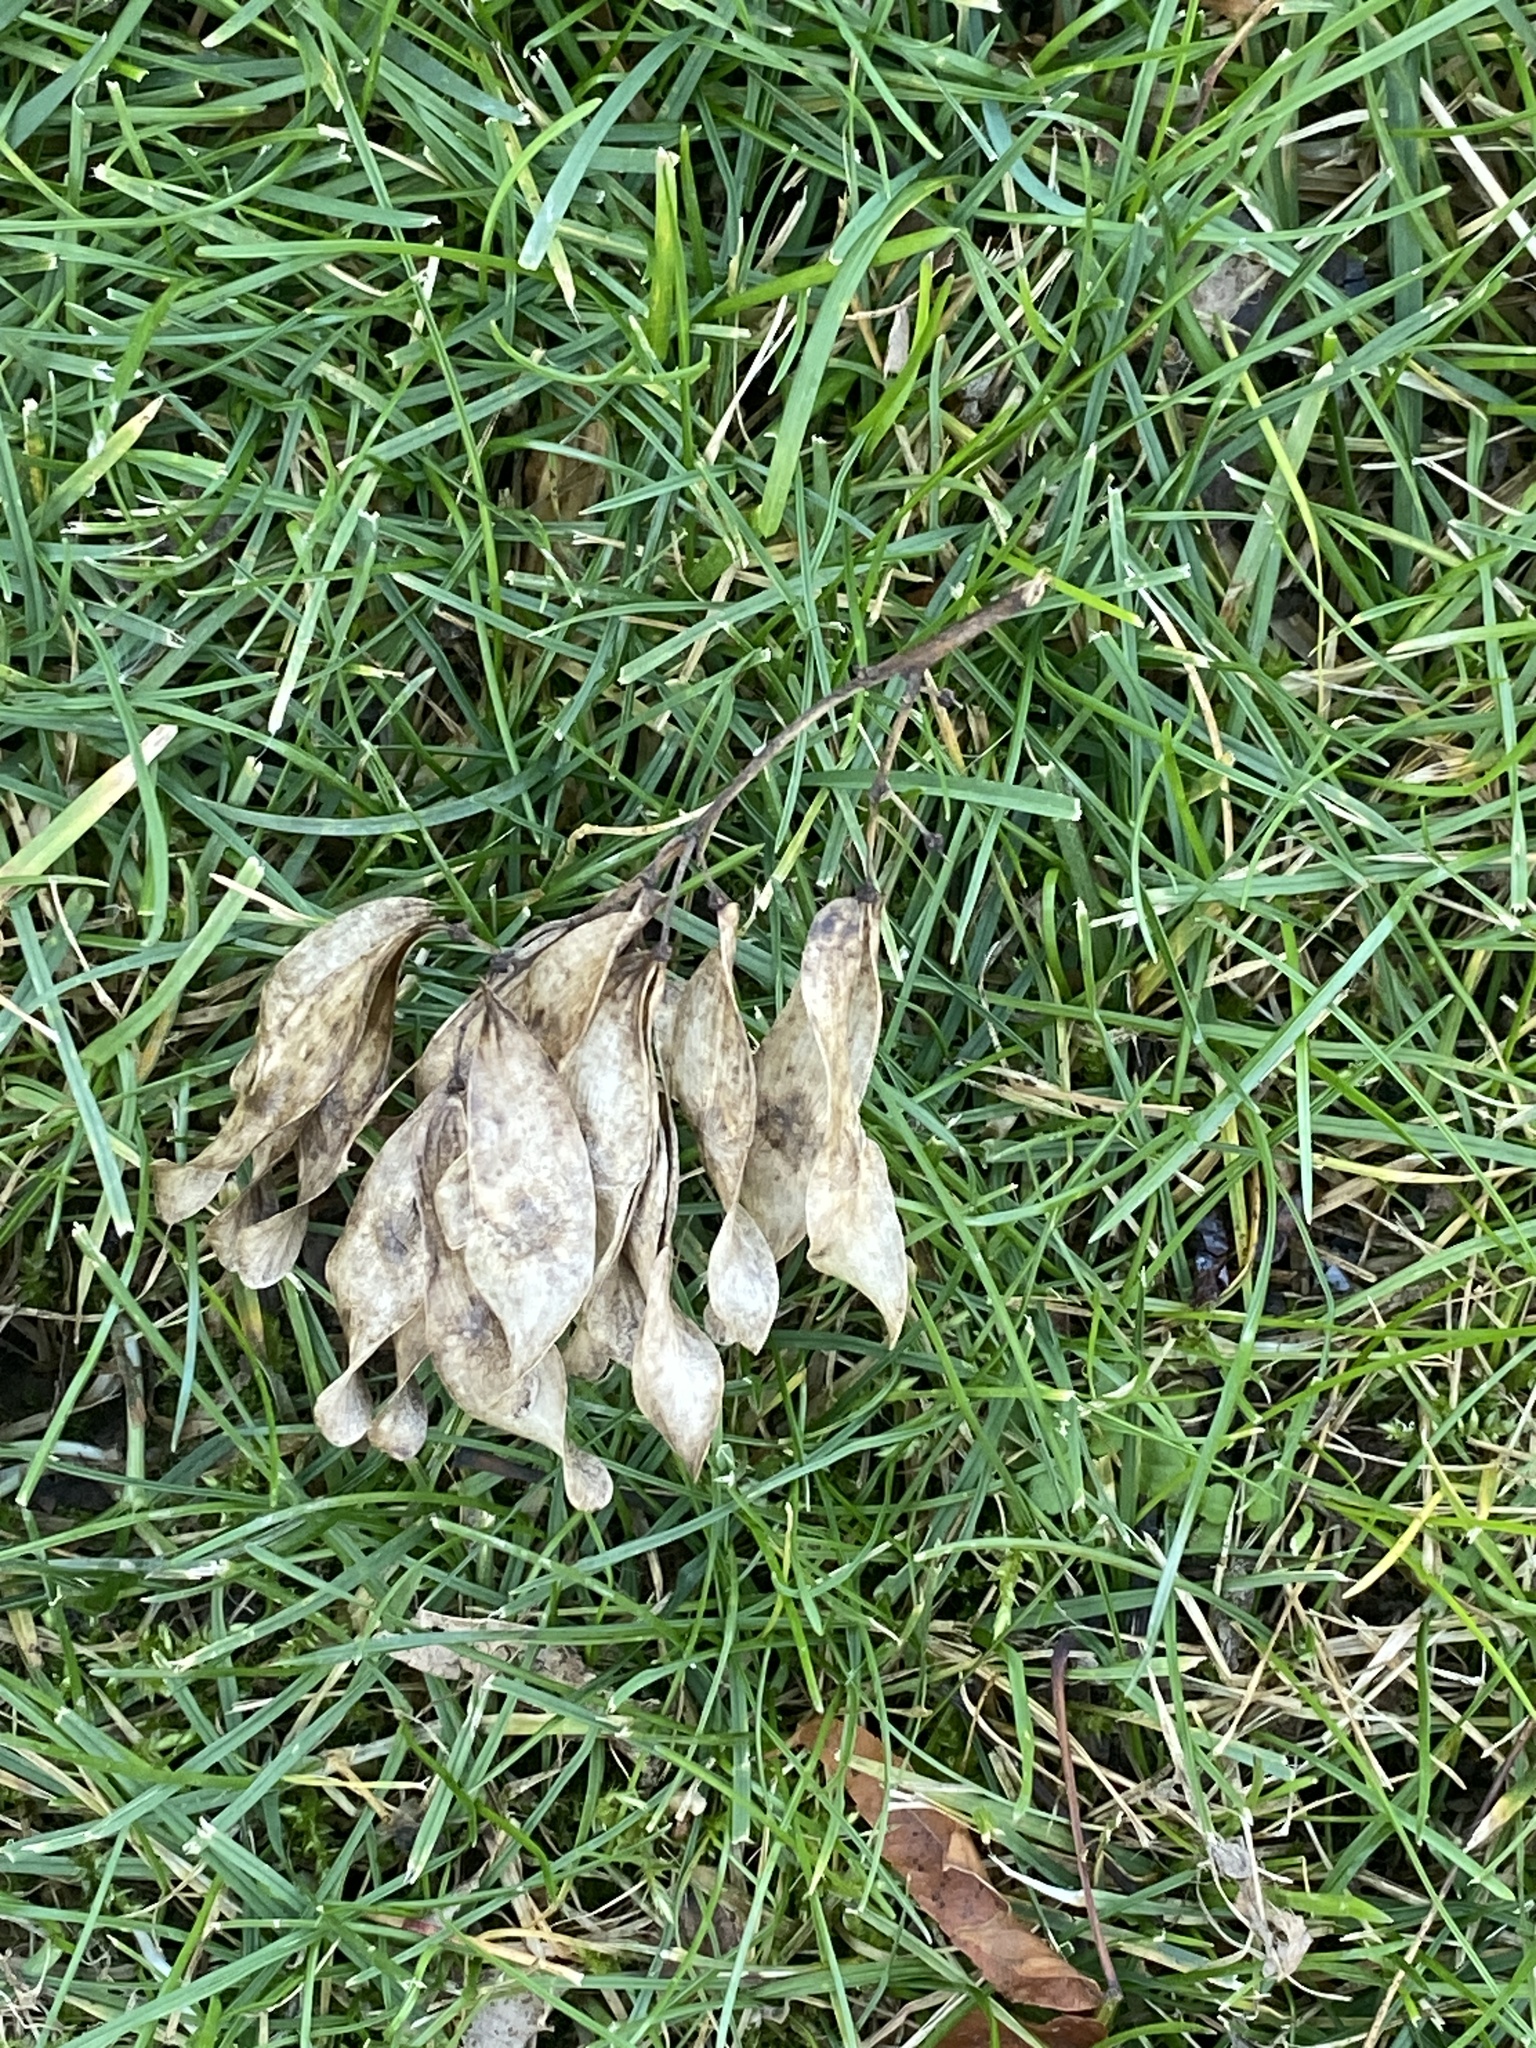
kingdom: Plantae
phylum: Tracheophyta
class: Magnoliopsida
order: Sapindales
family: Simaroubaceae
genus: Ailanthus
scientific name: Ailanthus altissima
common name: Tree-of-heaven
